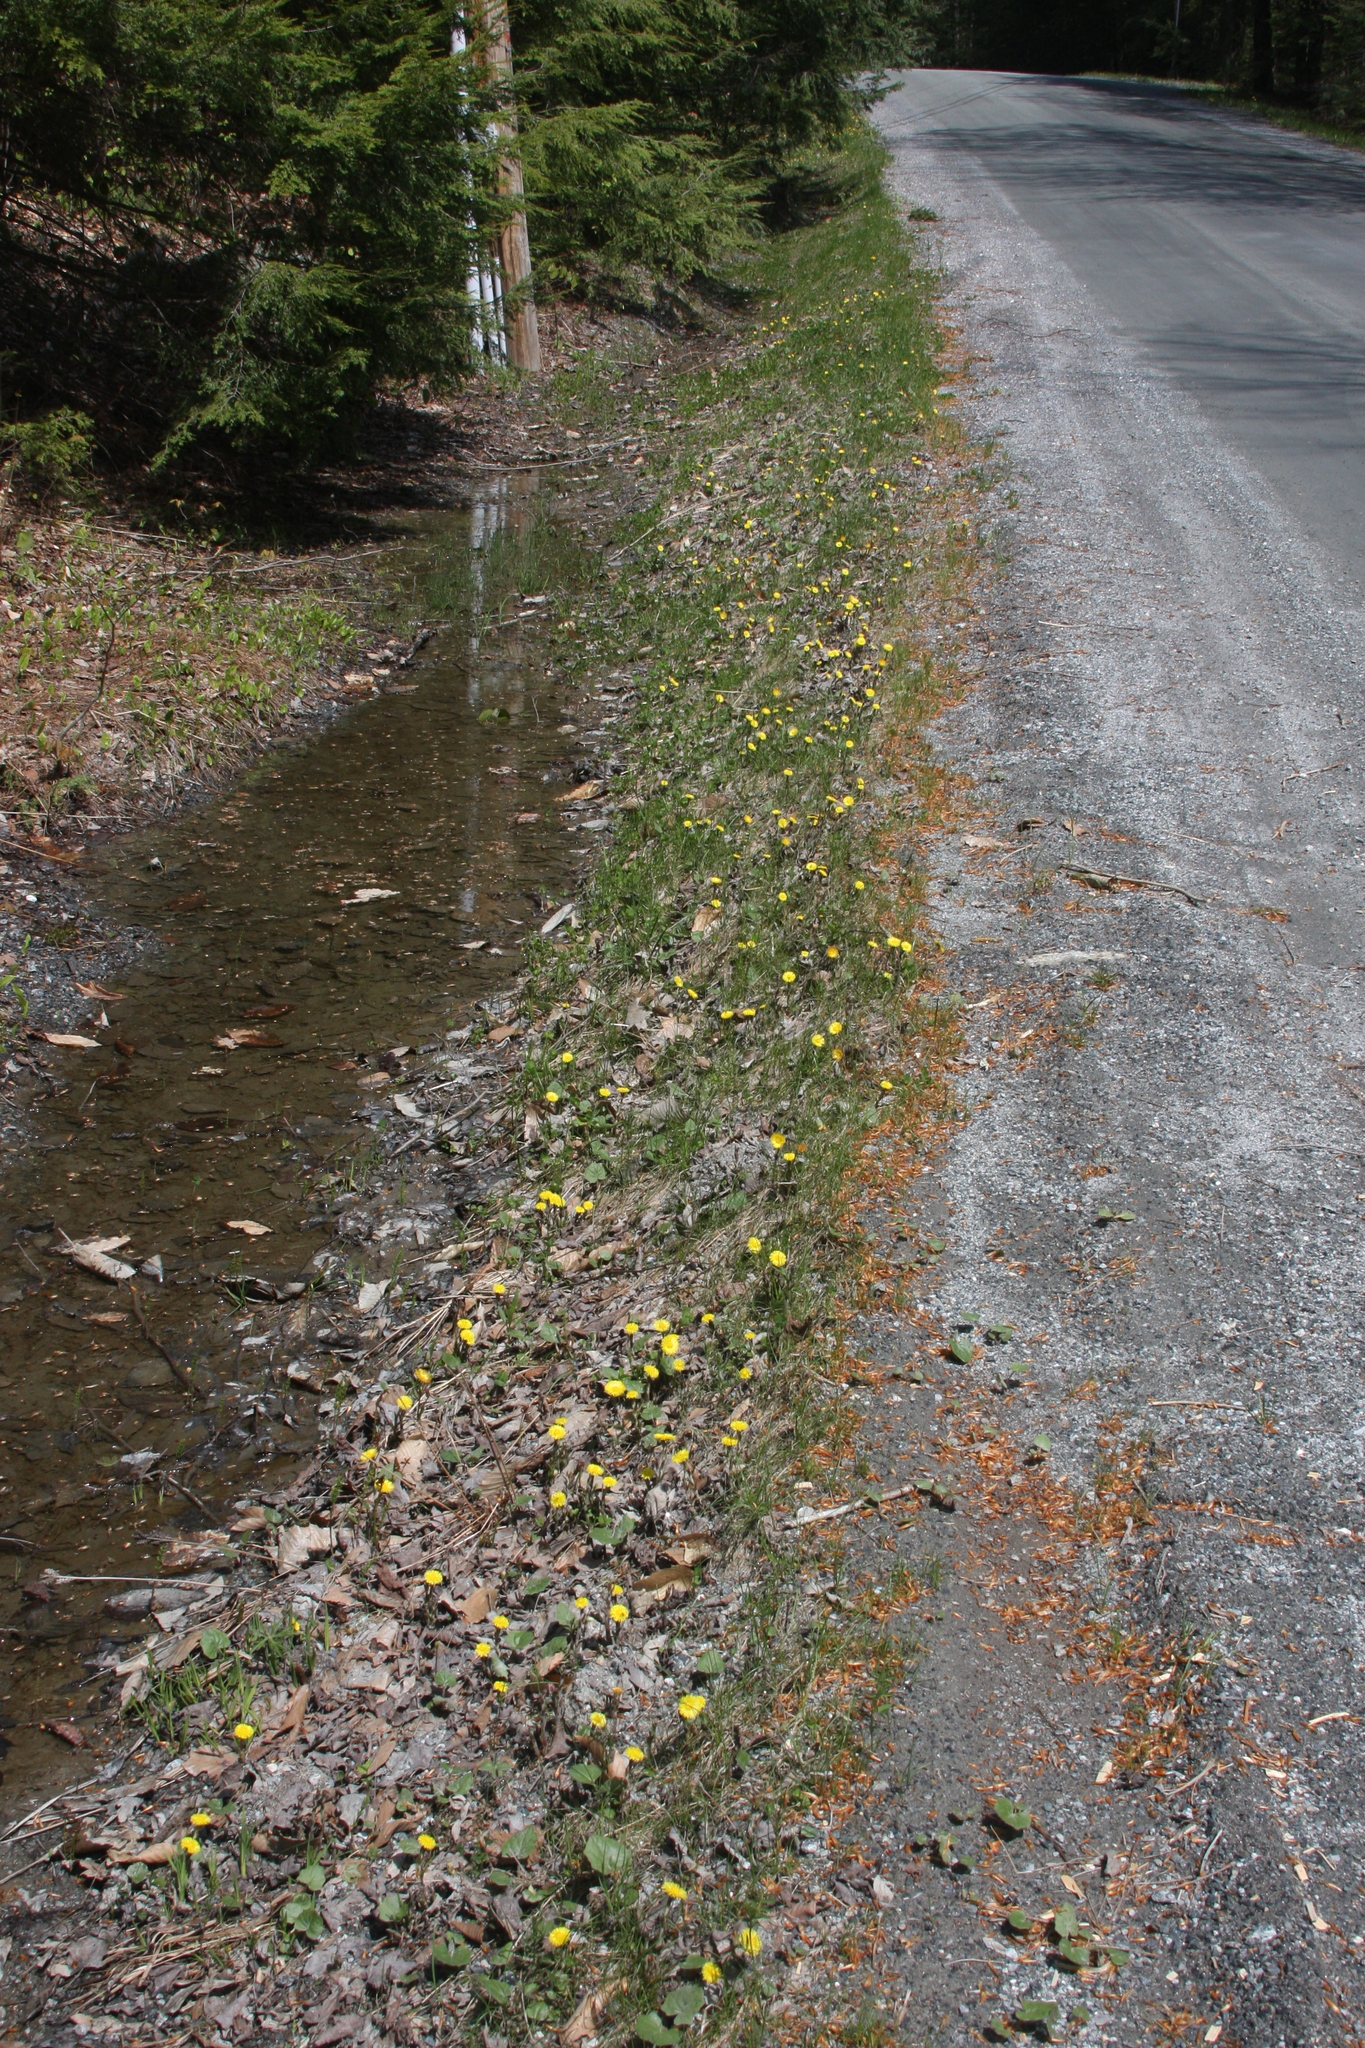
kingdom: Plantae
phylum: Tracheophyta
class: Magnoliopsida
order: Asterales
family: Asteraceae
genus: Tussilago
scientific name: Tussilago farfara
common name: Coltsfoot
